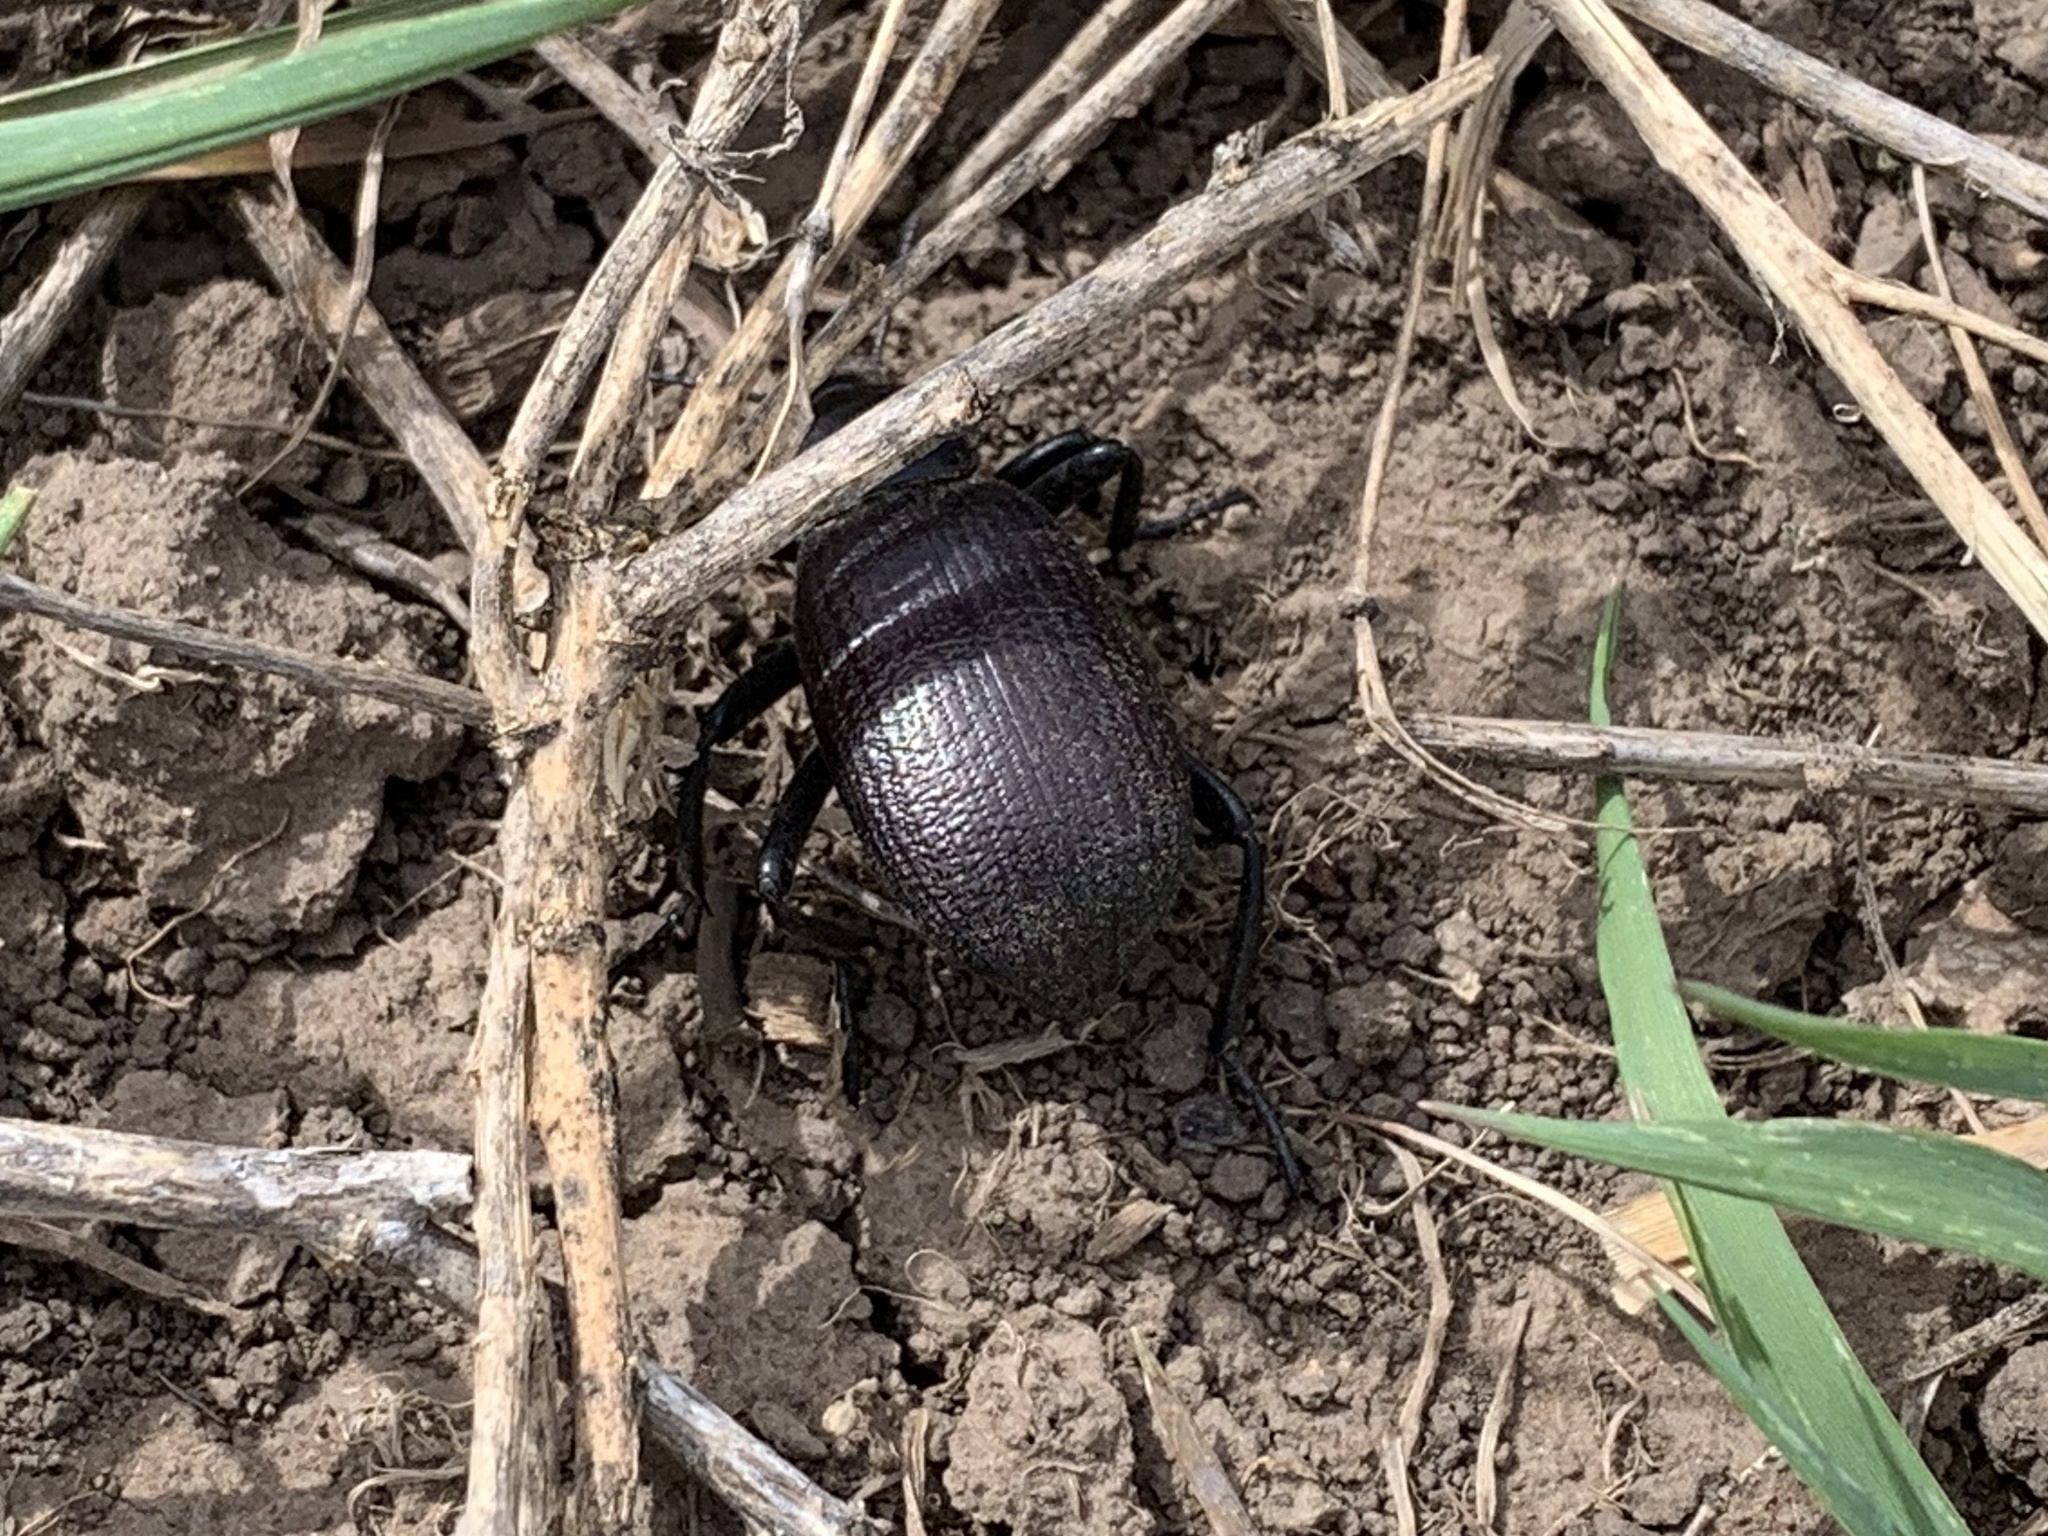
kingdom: Animalia
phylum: Arthropoda
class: Insecta
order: Coleoptera
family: Tenebrionidae
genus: Eleodes
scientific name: Eleodes obscura
